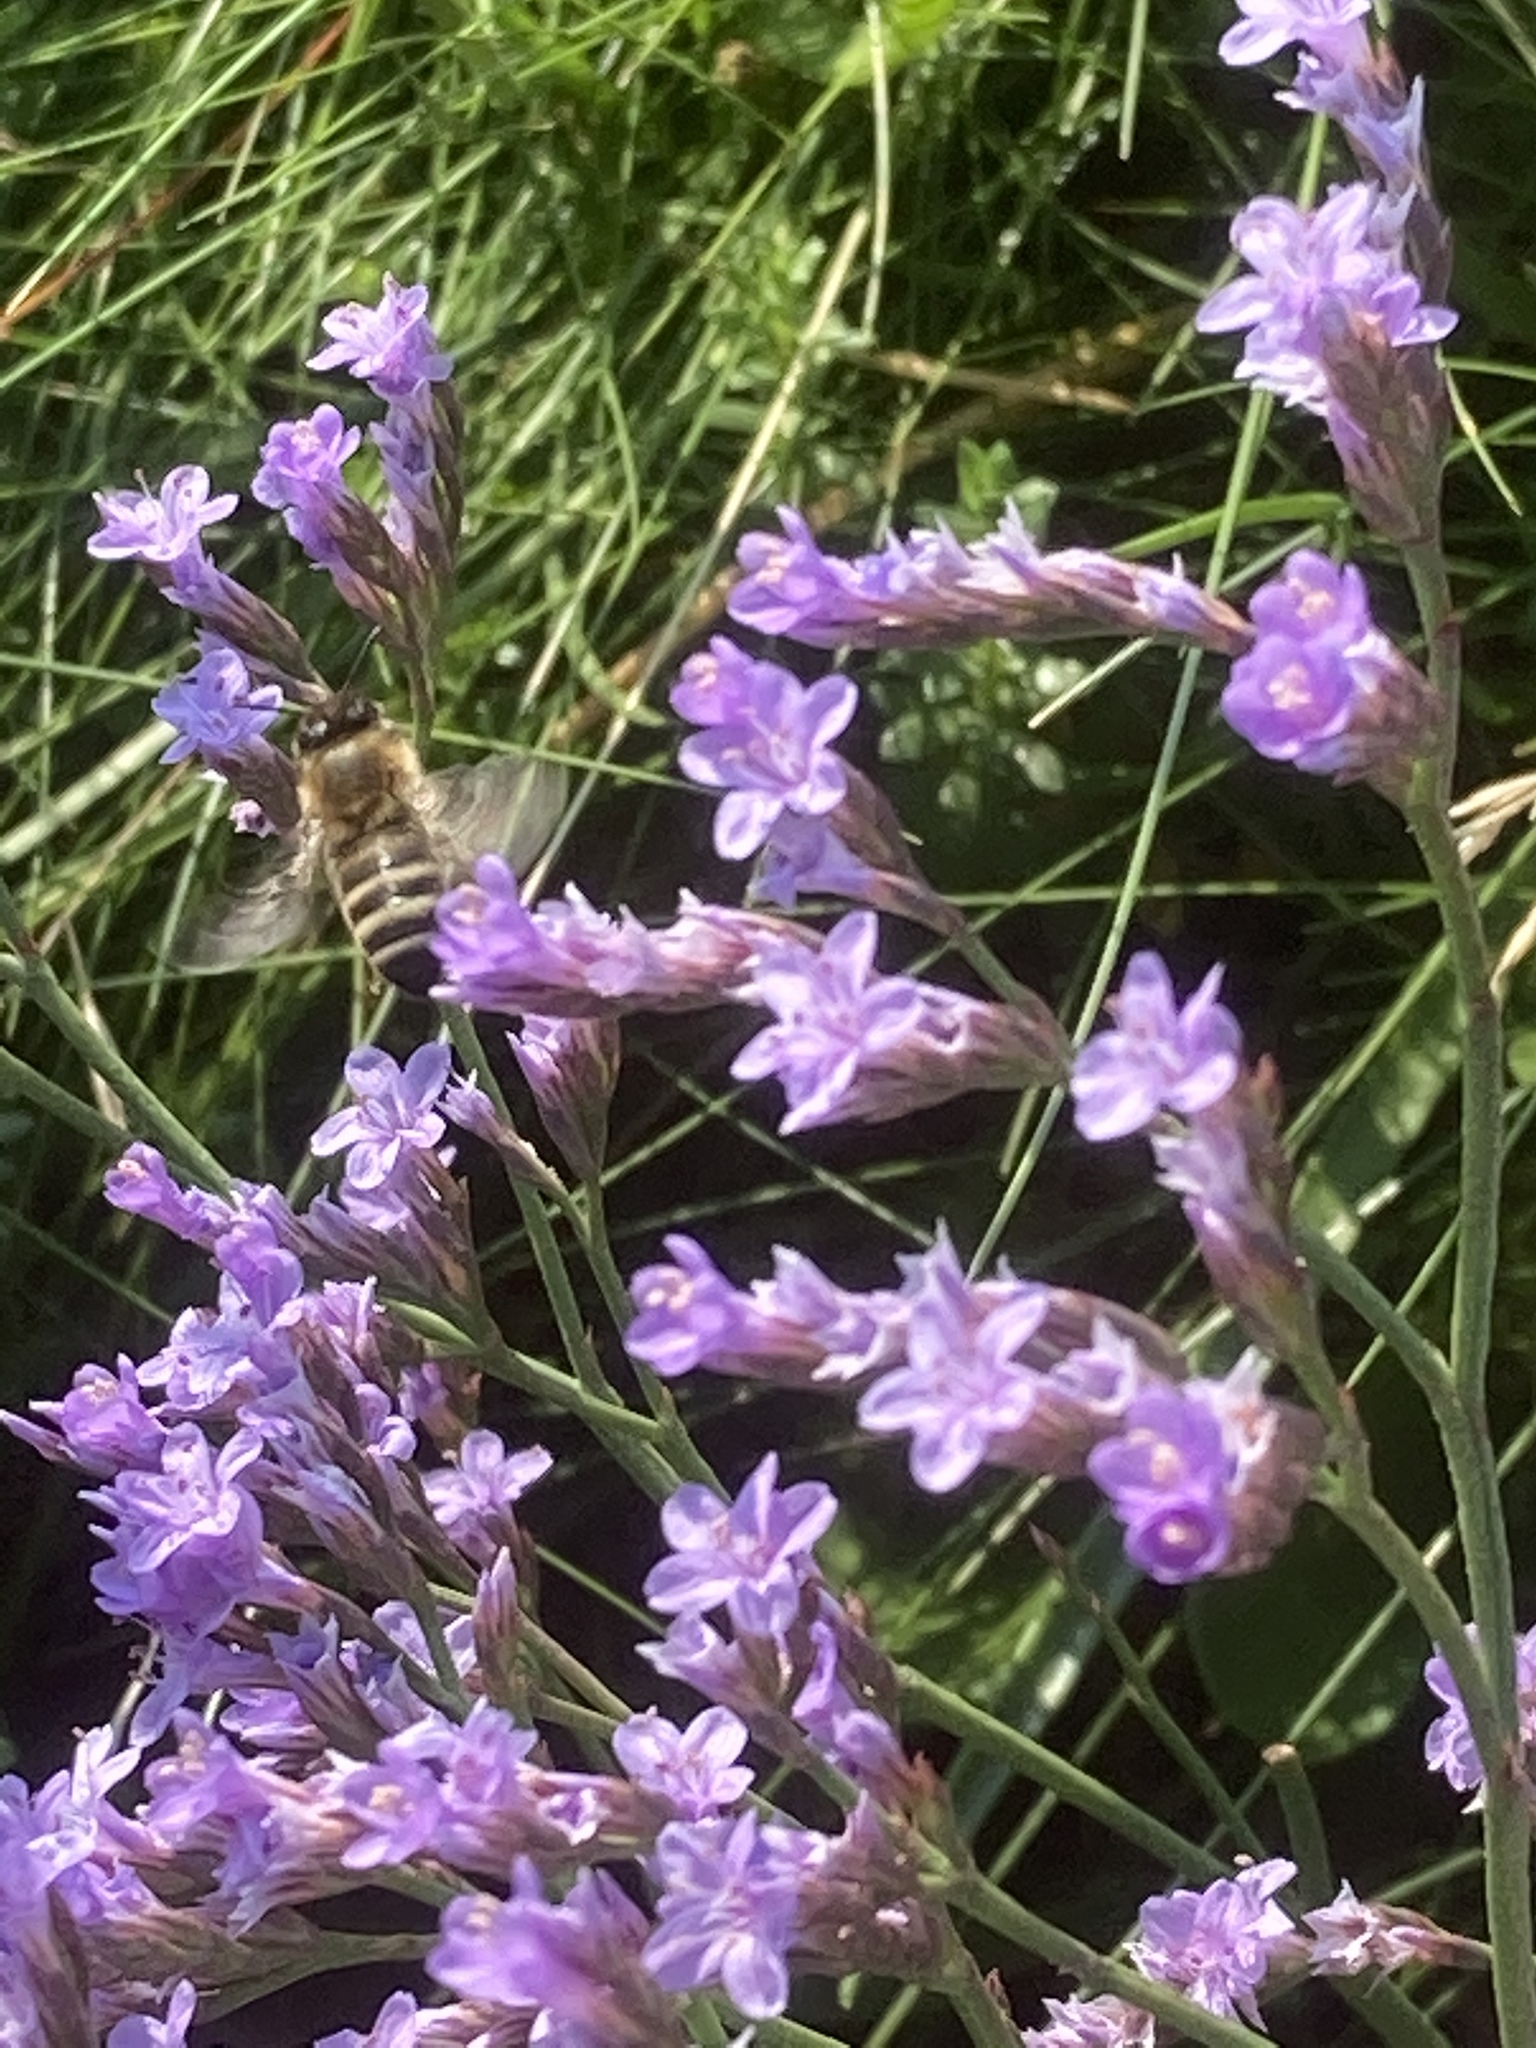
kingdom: Animalia
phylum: Arthropoda
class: Insecta
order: Hymenoptera
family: Apidae
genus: Apis
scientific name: Apis mellifera
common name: Honey bee
